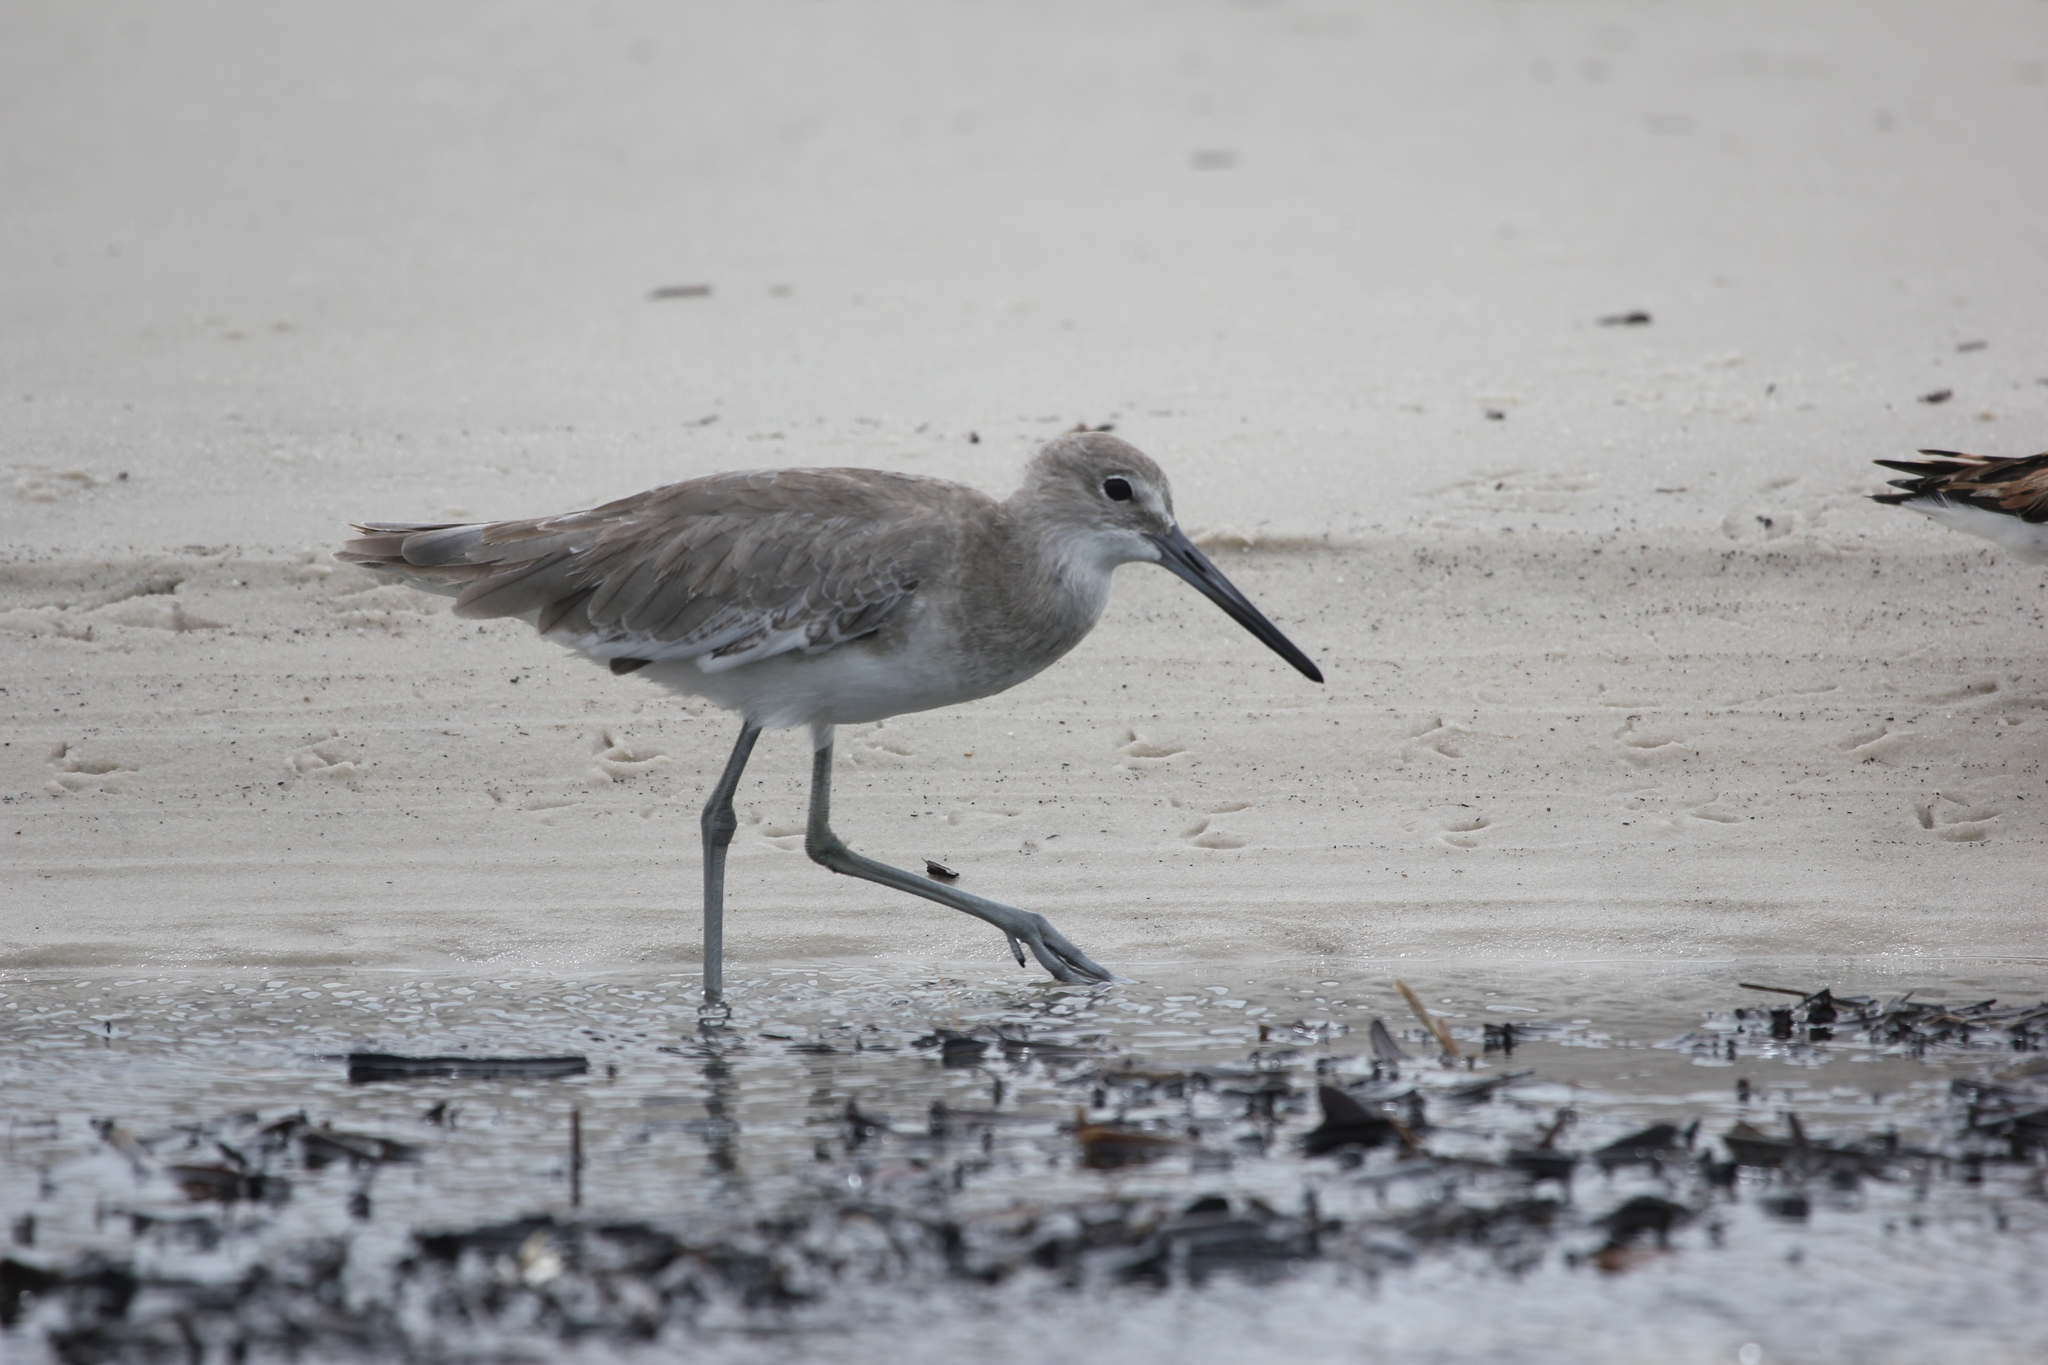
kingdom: Animalia
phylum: Chordata
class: Aves
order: Charadriiformes
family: Scolopacidae
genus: Tringa
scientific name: Tringa semipalmata
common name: Willet
